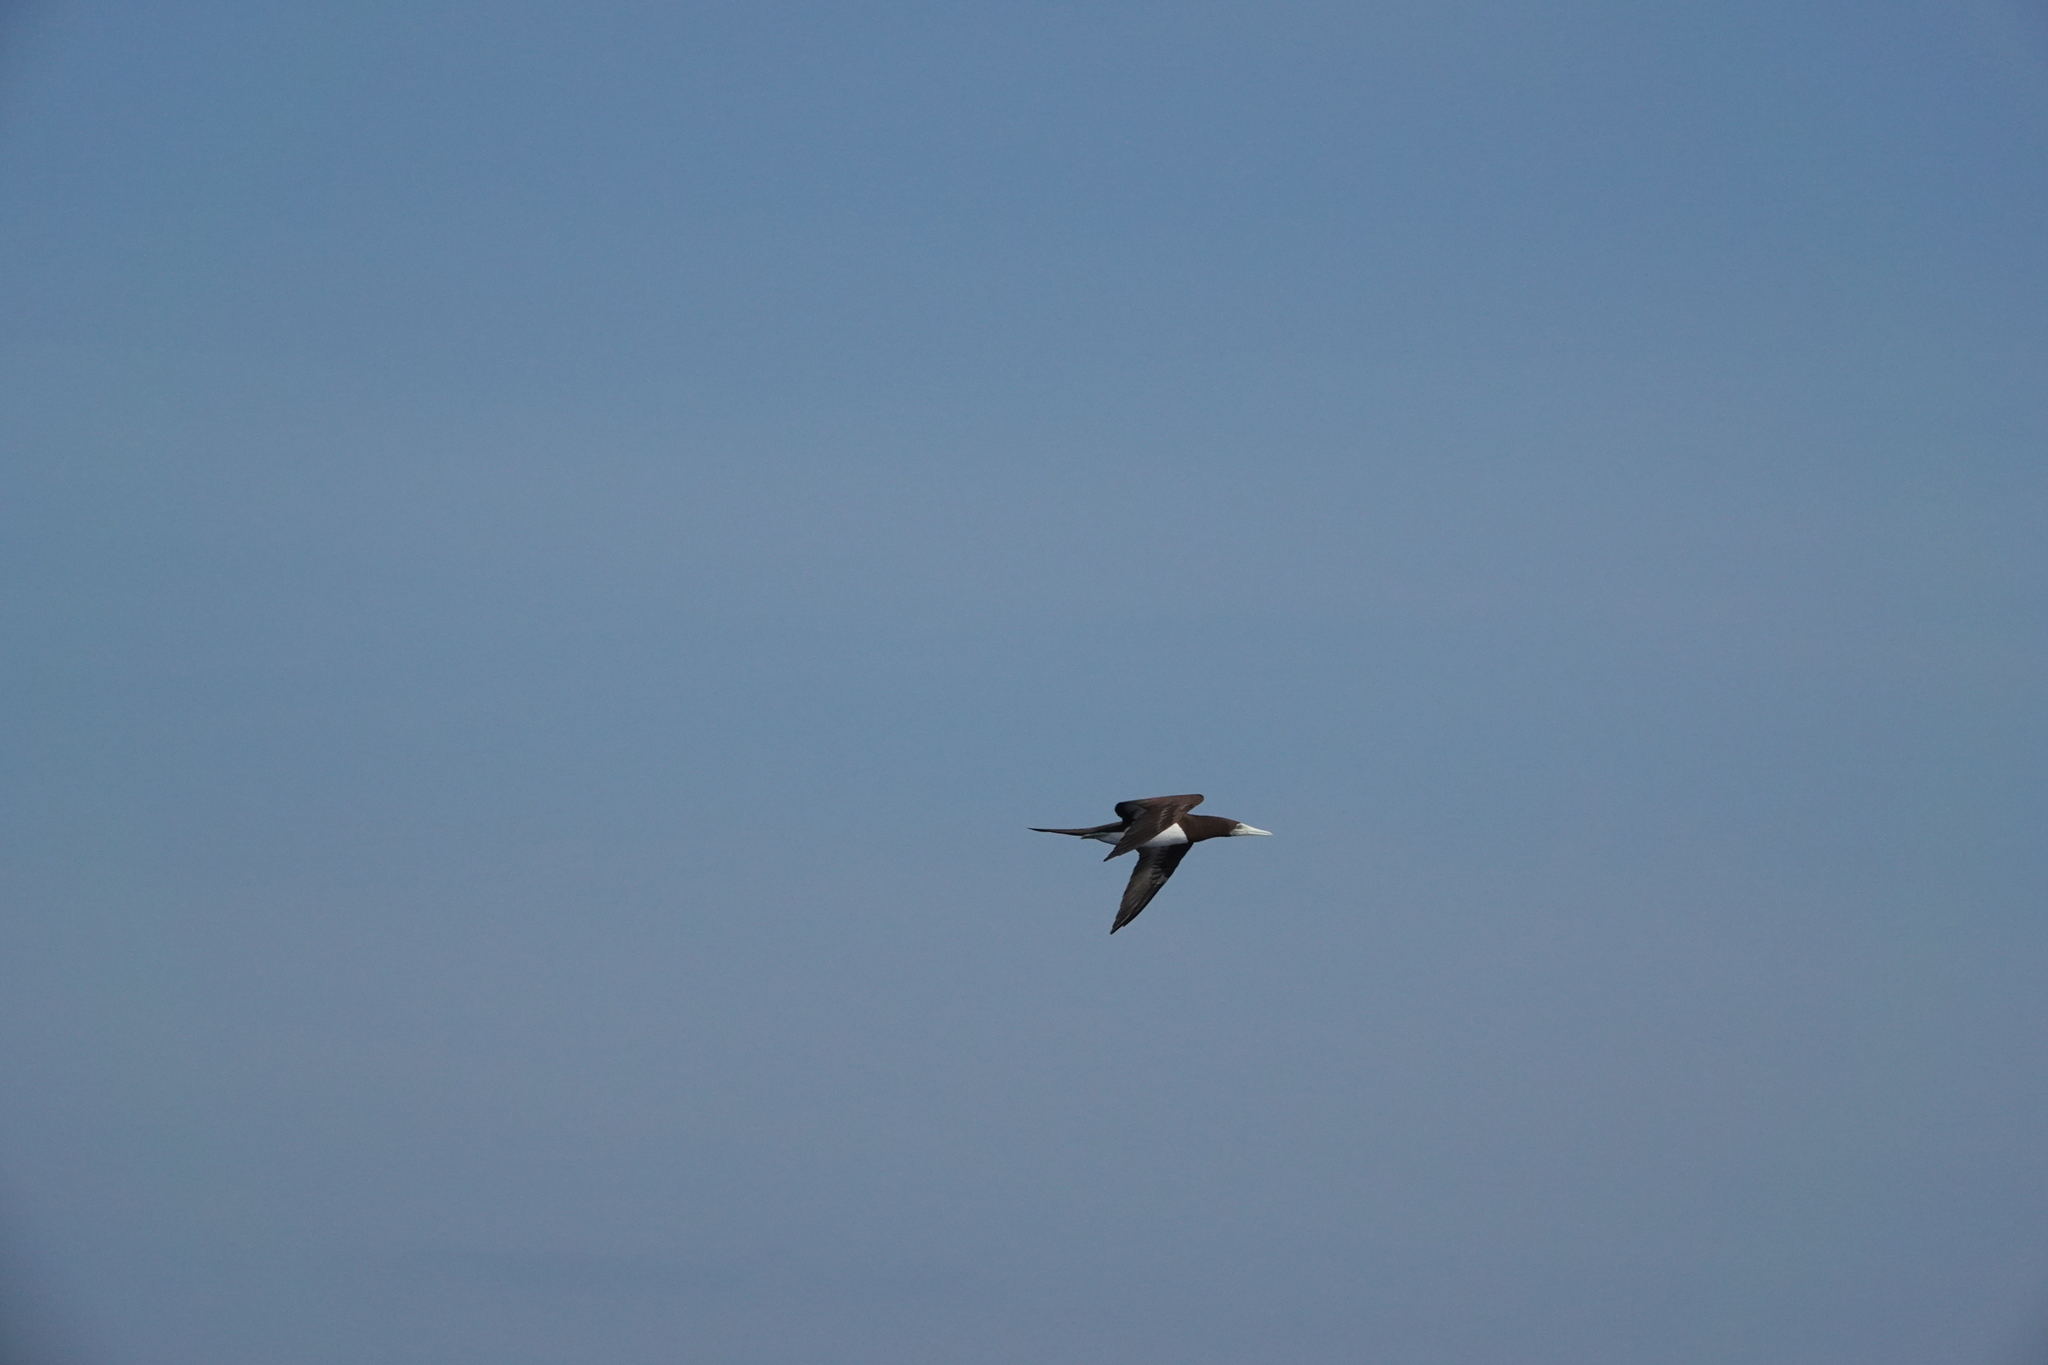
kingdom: Animalia
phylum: Chordata
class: Aves
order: Suliformes
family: Sulidae
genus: Sula
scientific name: Sula leucogaster
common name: Brown booby
